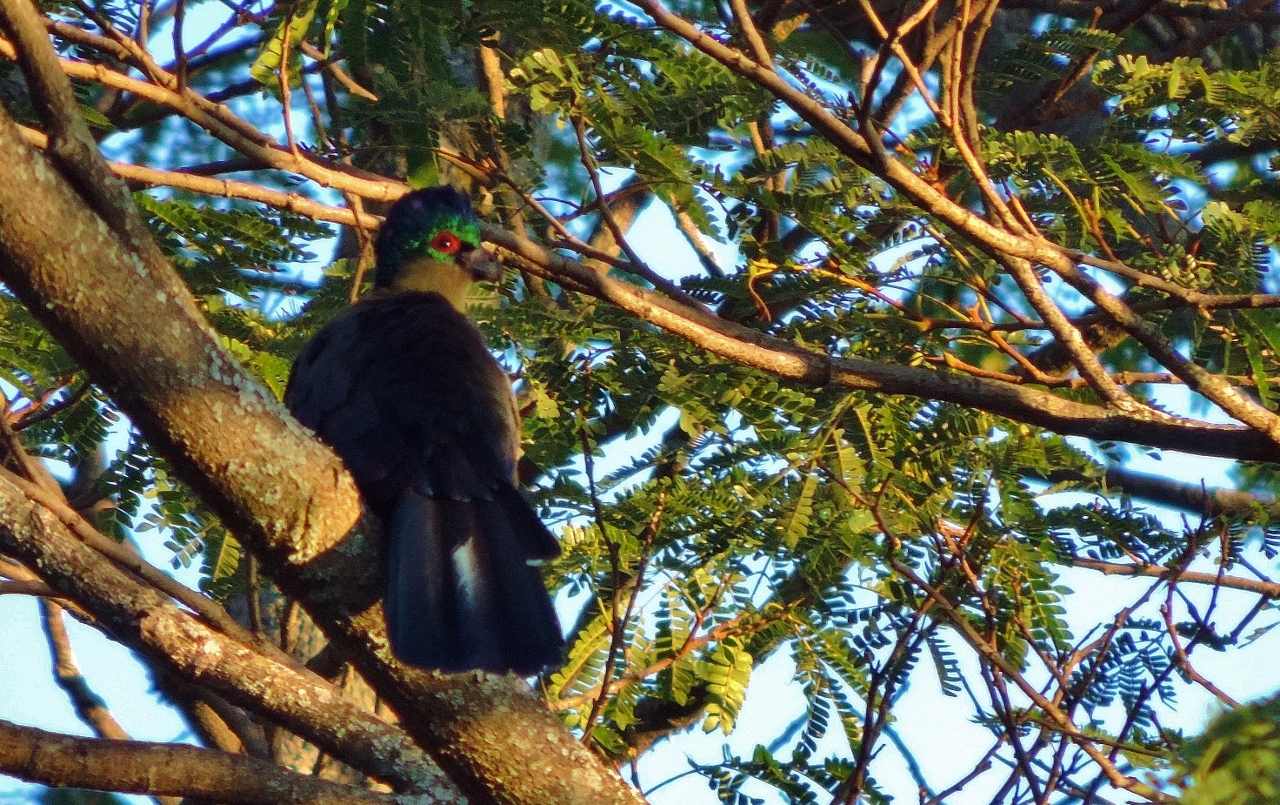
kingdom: Animalia
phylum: Chordata
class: Aves
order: Musophagiformes
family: Musophagidae
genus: Tauraco
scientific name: Tauraco porphyreolophus
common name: Purple-crested turaco
